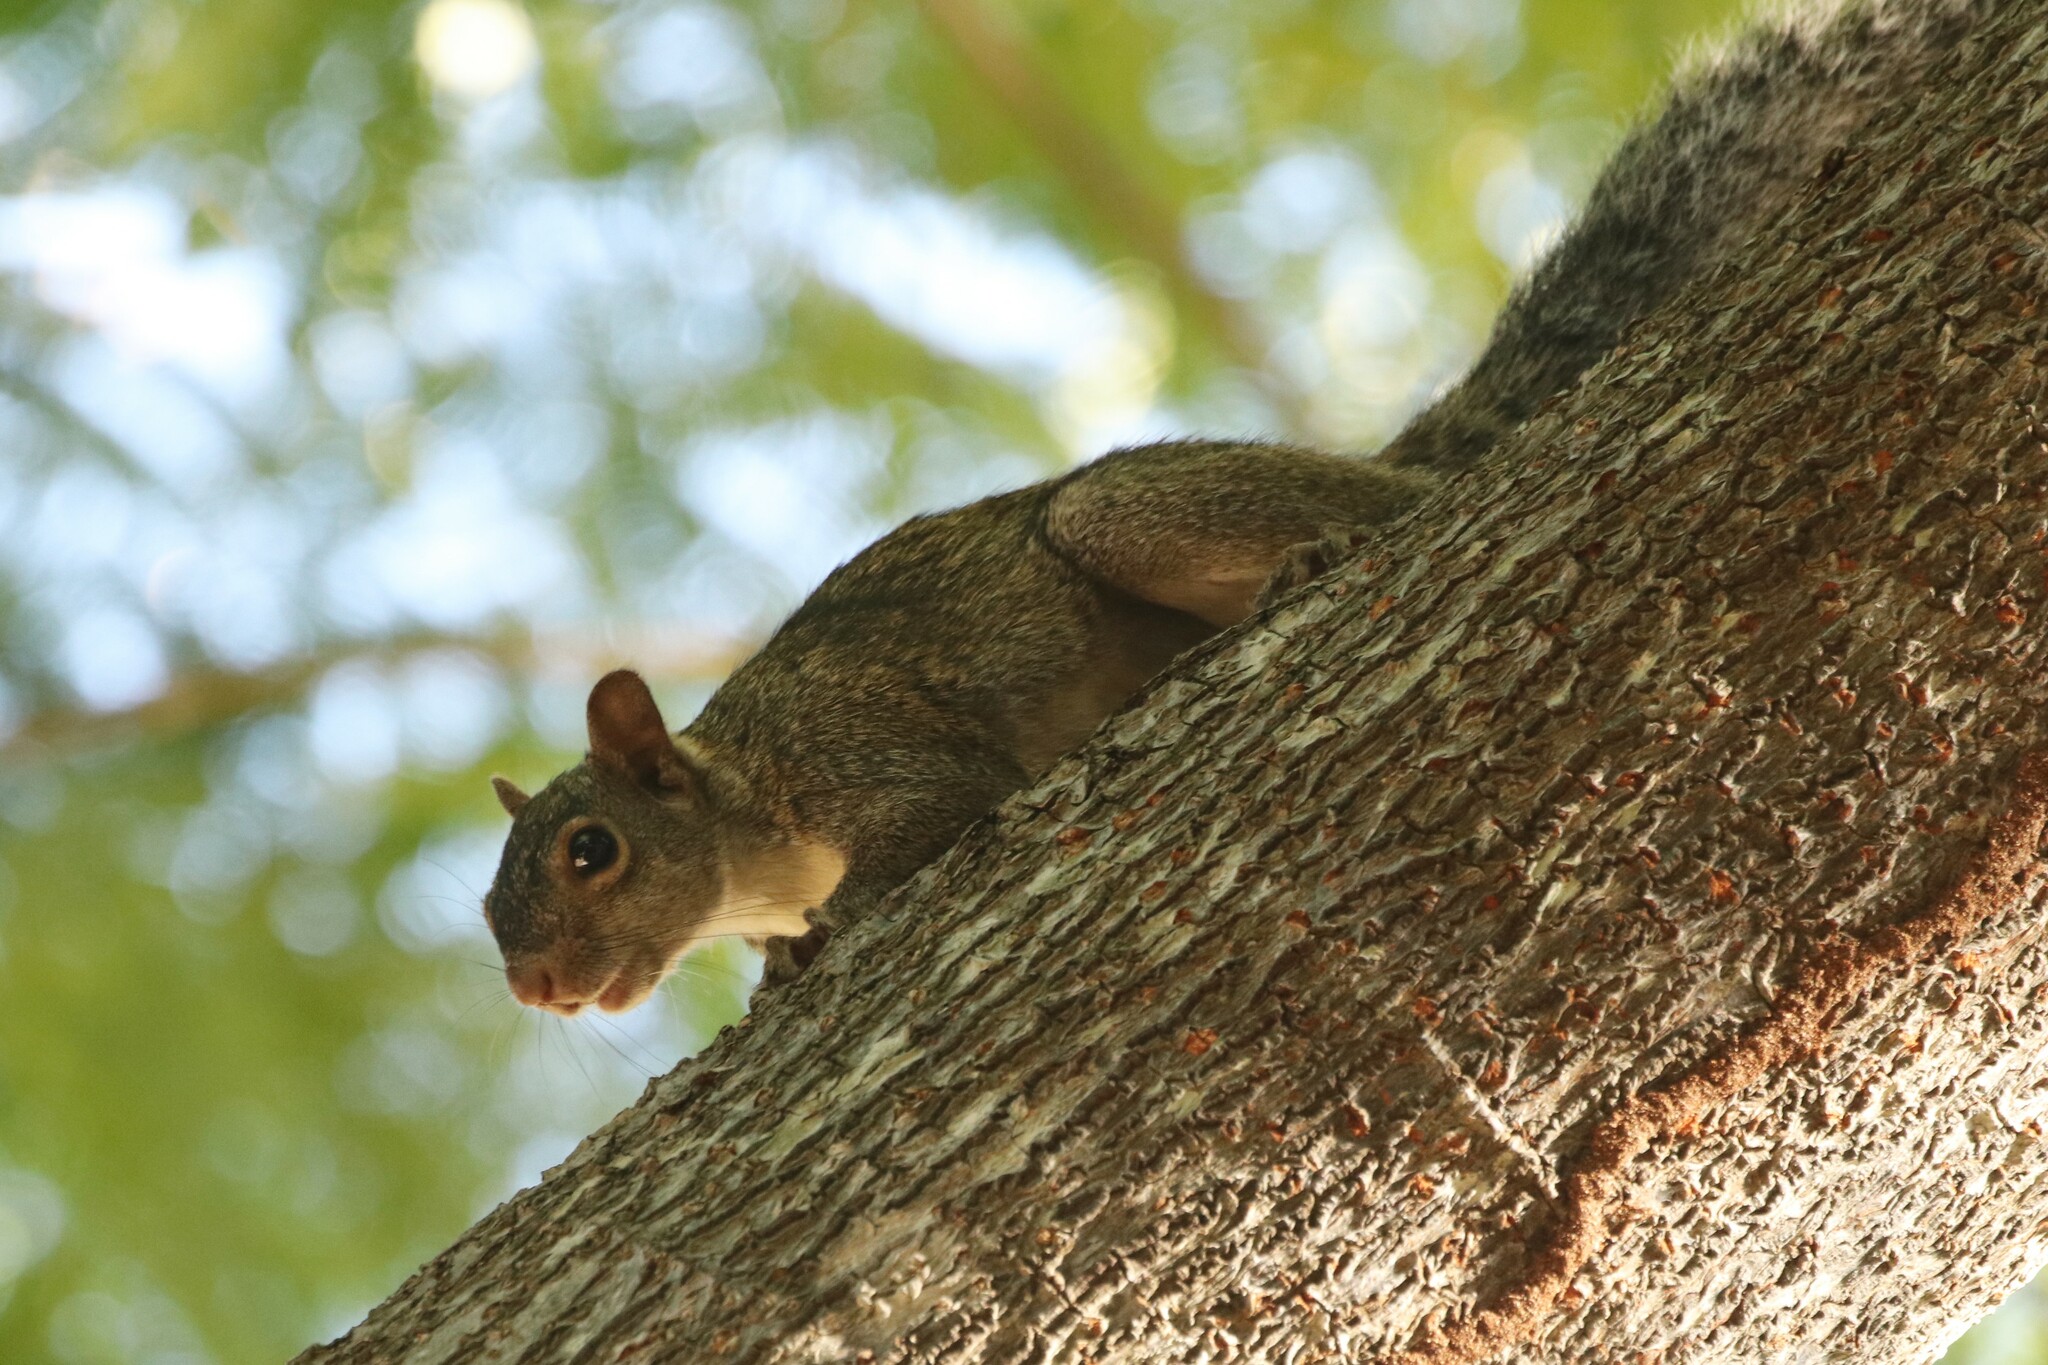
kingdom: Animalia
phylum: Chordata
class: Mammalia
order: Rodentia
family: Sciuridae
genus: Sciurus
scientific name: Sciurus yucatanensis
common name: Yucatan squirrel
